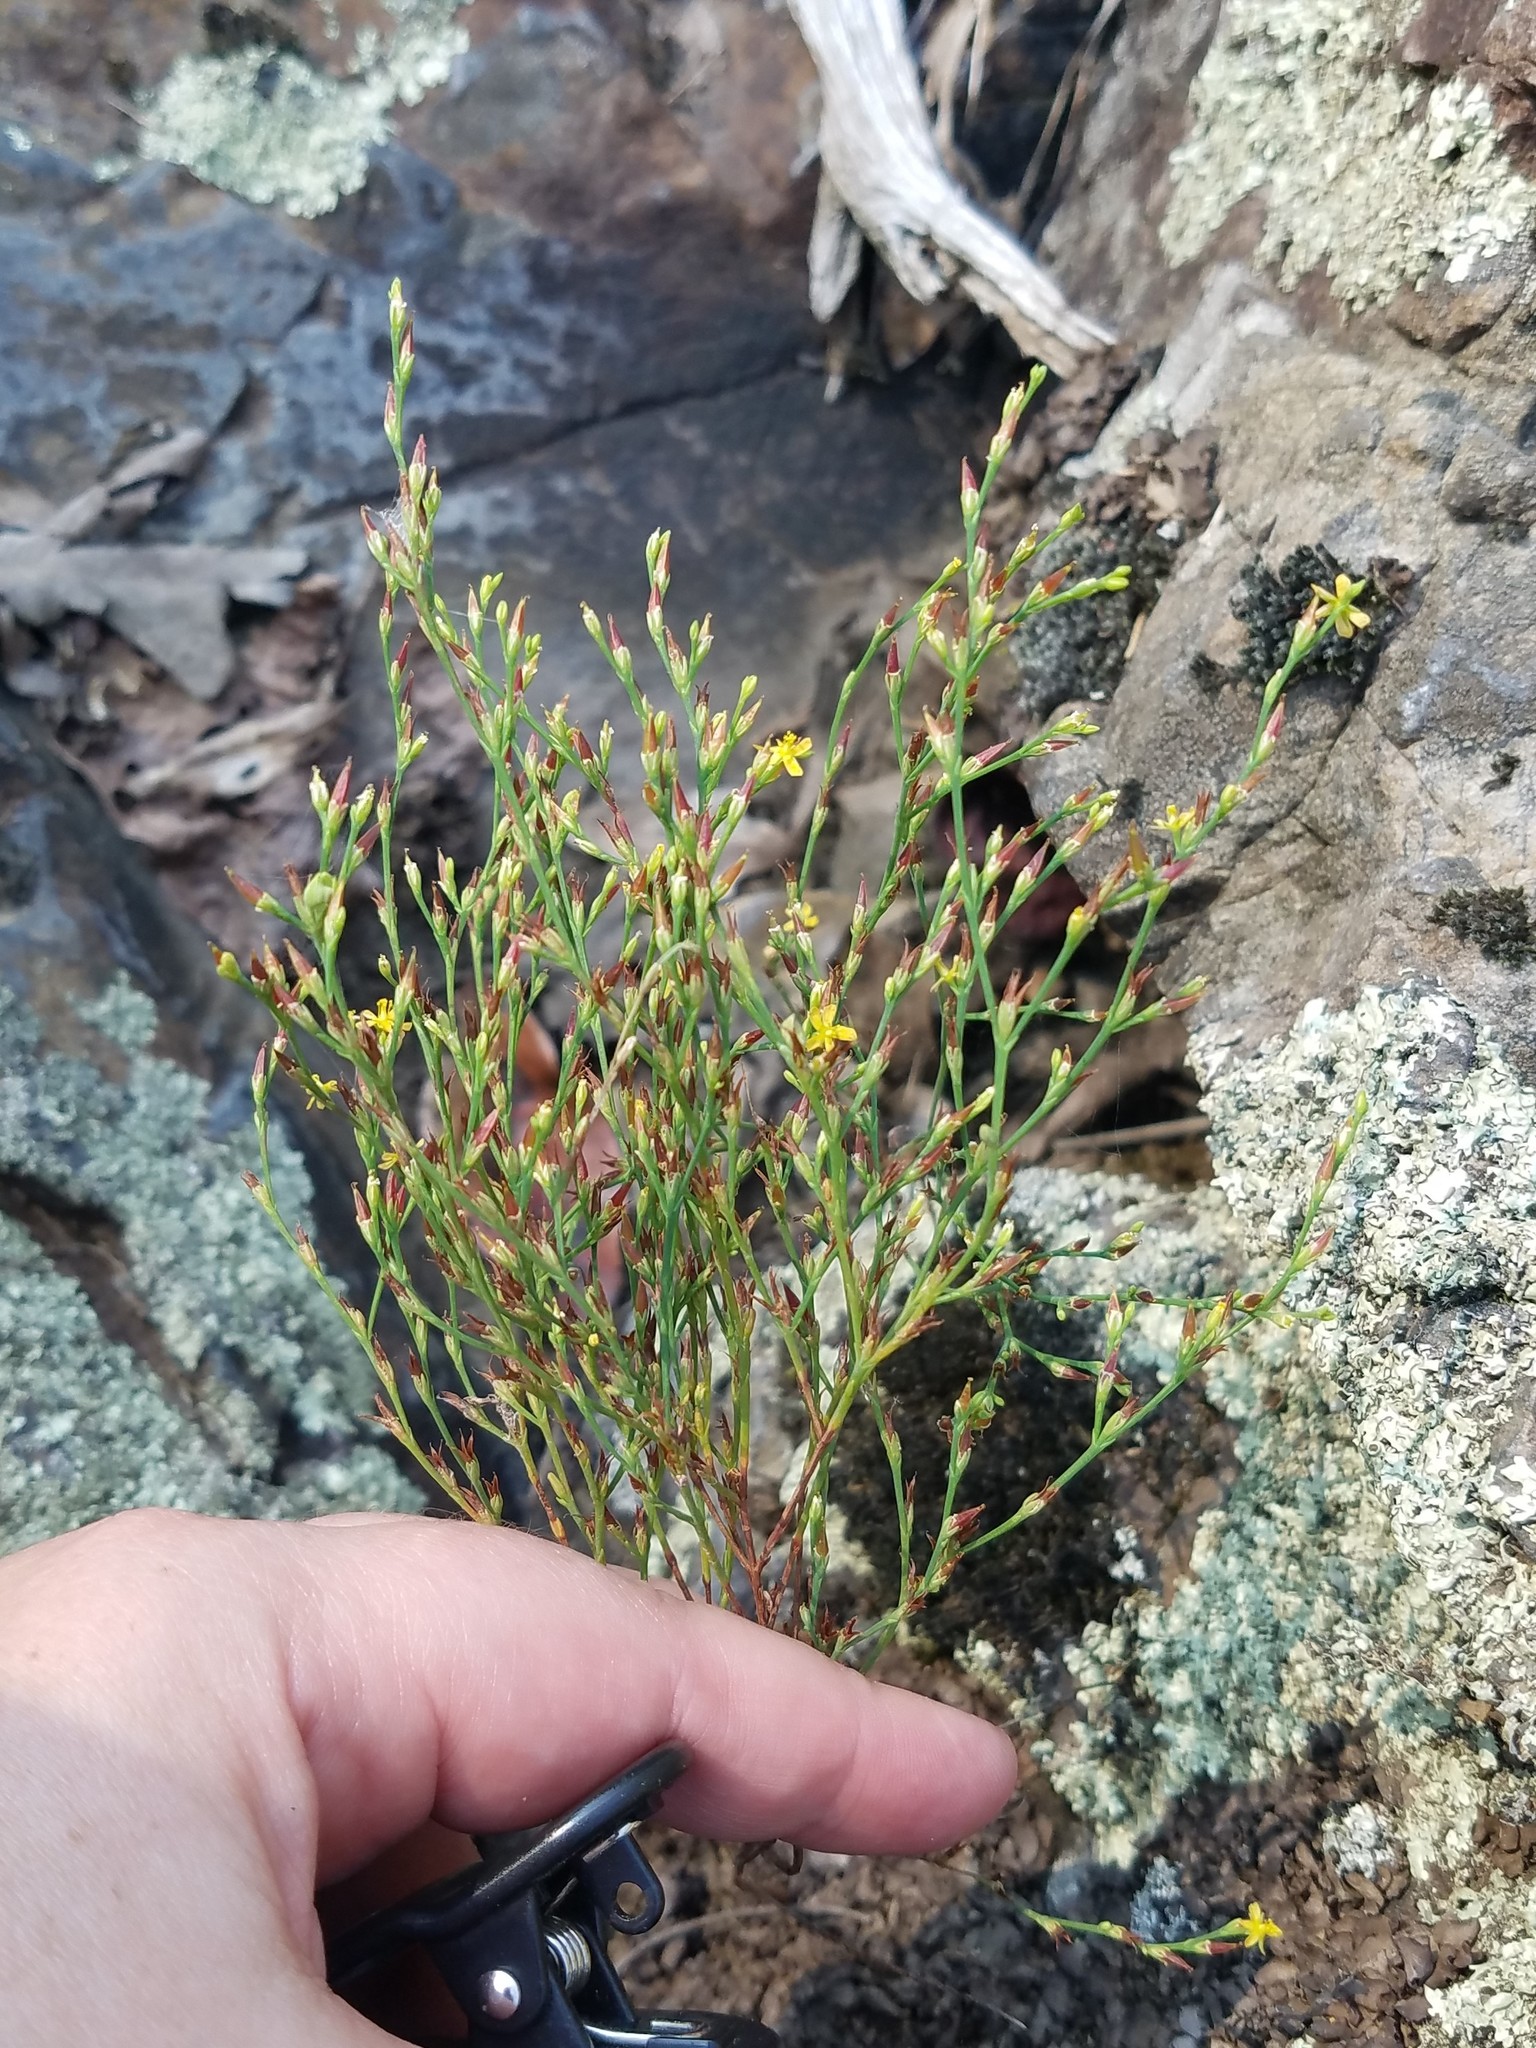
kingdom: Plantae
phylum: Tracheophyta
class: Magnoliopsida
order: Malpighiales
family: Hypericaceae
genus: Hypericum
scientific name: Hypericum gentianoides
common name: Gentian-leaved st. john's-wort
